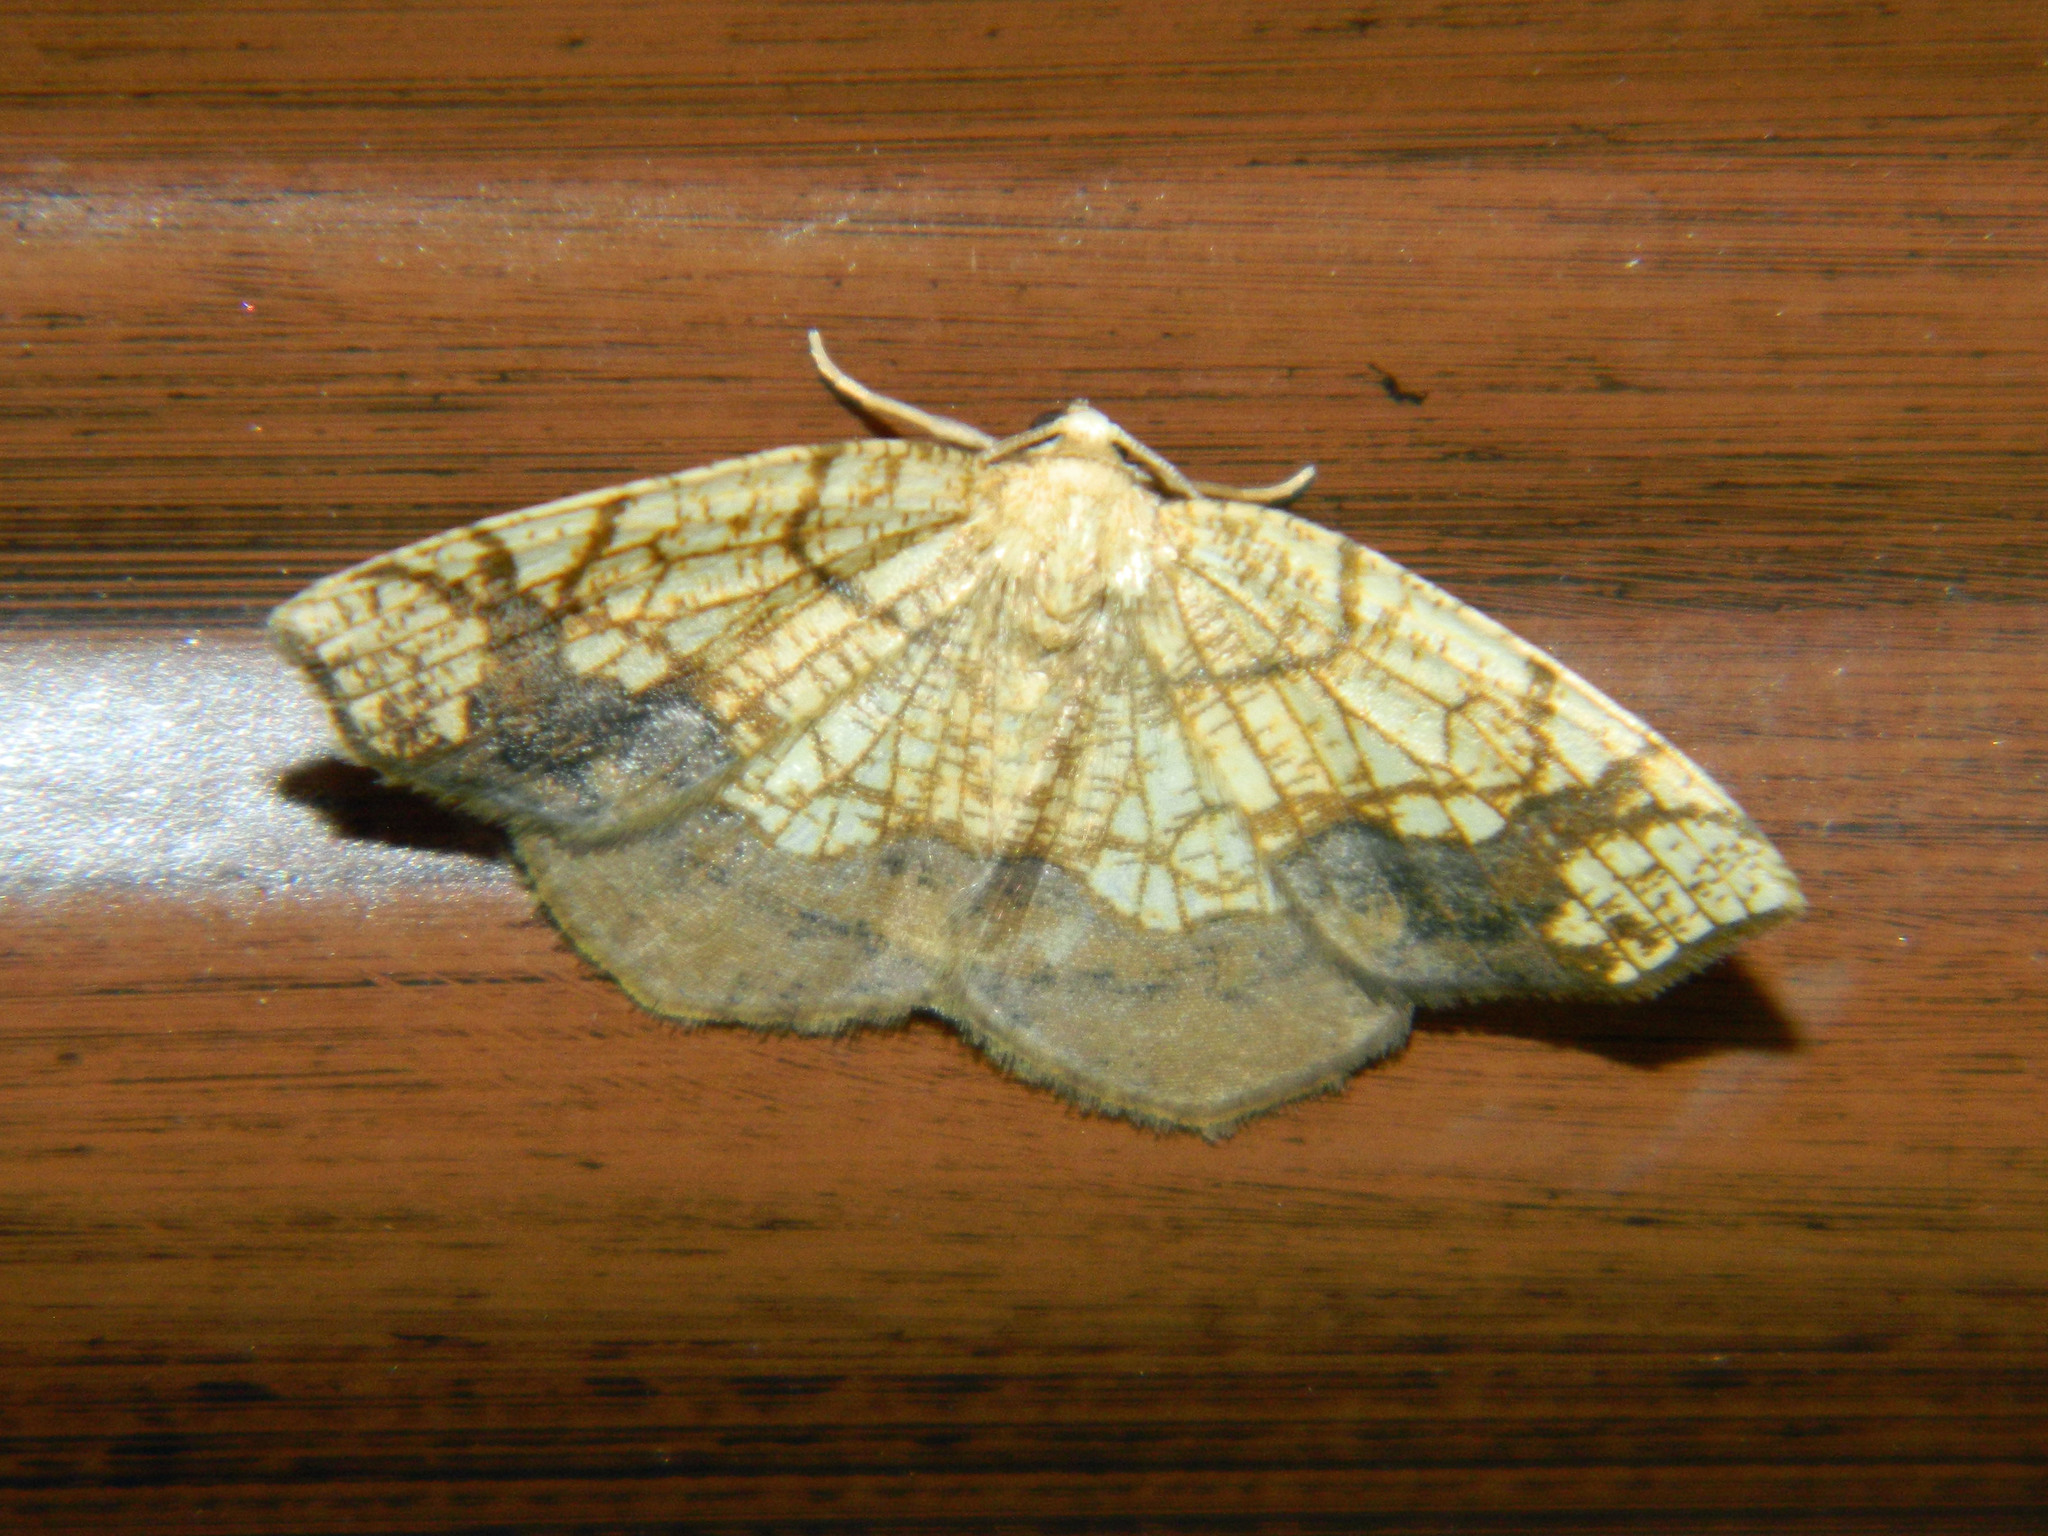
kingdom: Animalia
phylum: Arthropoda
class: Insecta
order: Lepidoptera
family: Geometridae
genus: Nematocampa
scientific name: Nematocampa resistaria
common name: Horned spanworm moth
